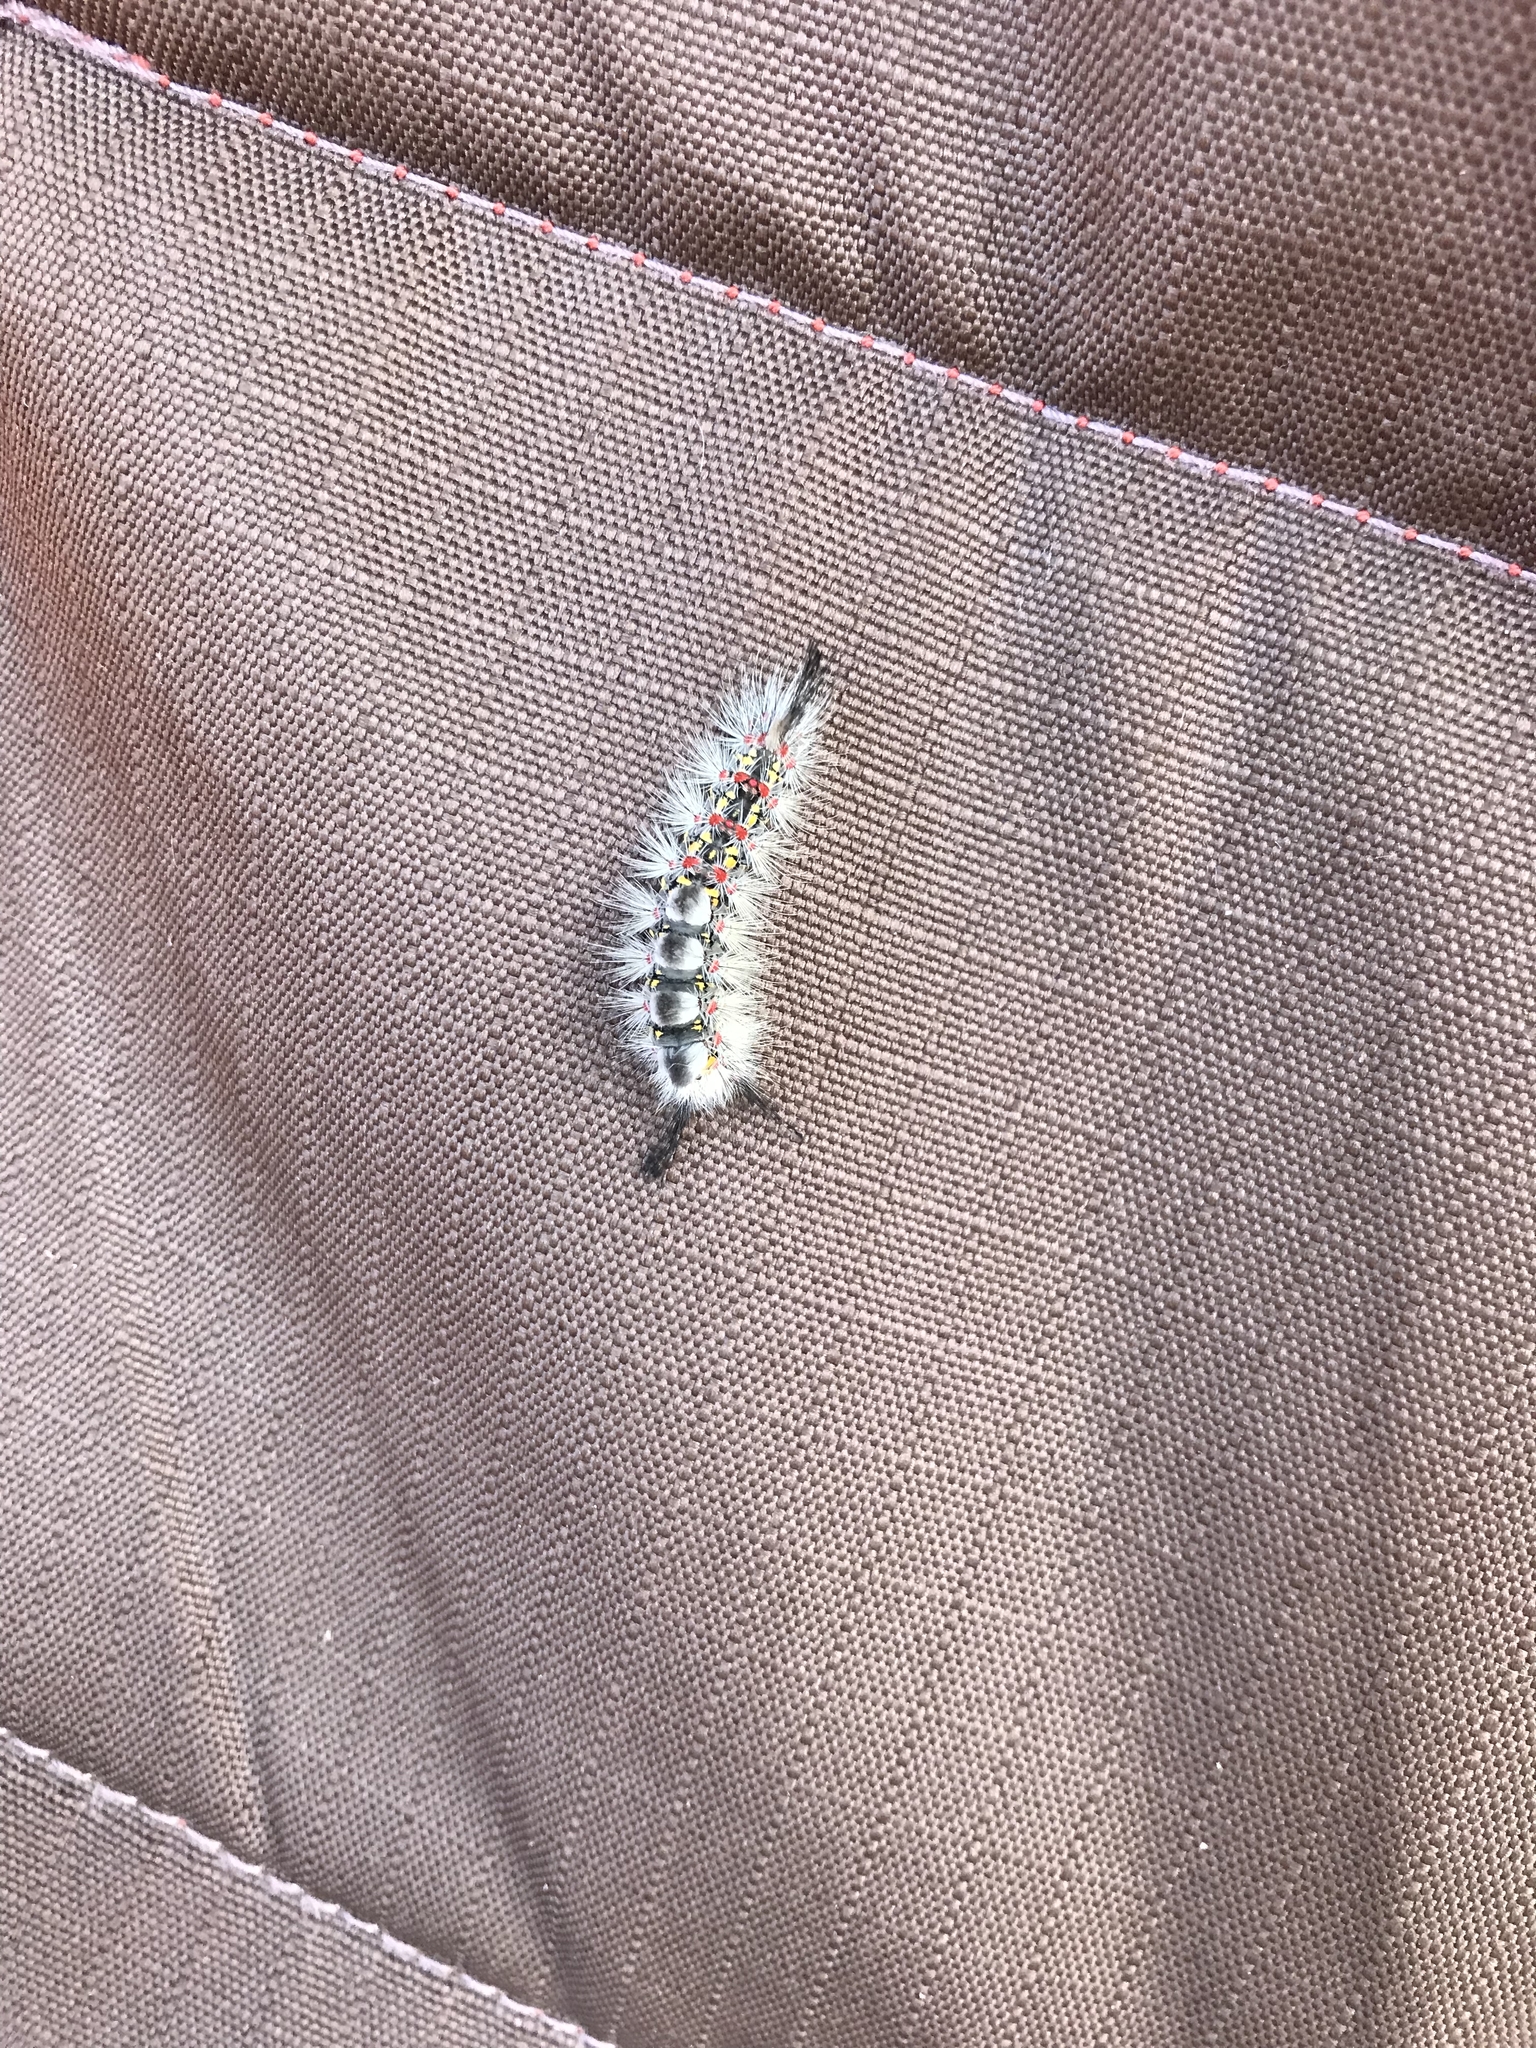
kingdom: Animalia
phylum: Arthropoda
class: Insecta
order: Lepidoptera
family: Erebidae
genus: Orgyia
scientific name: Orgyia
